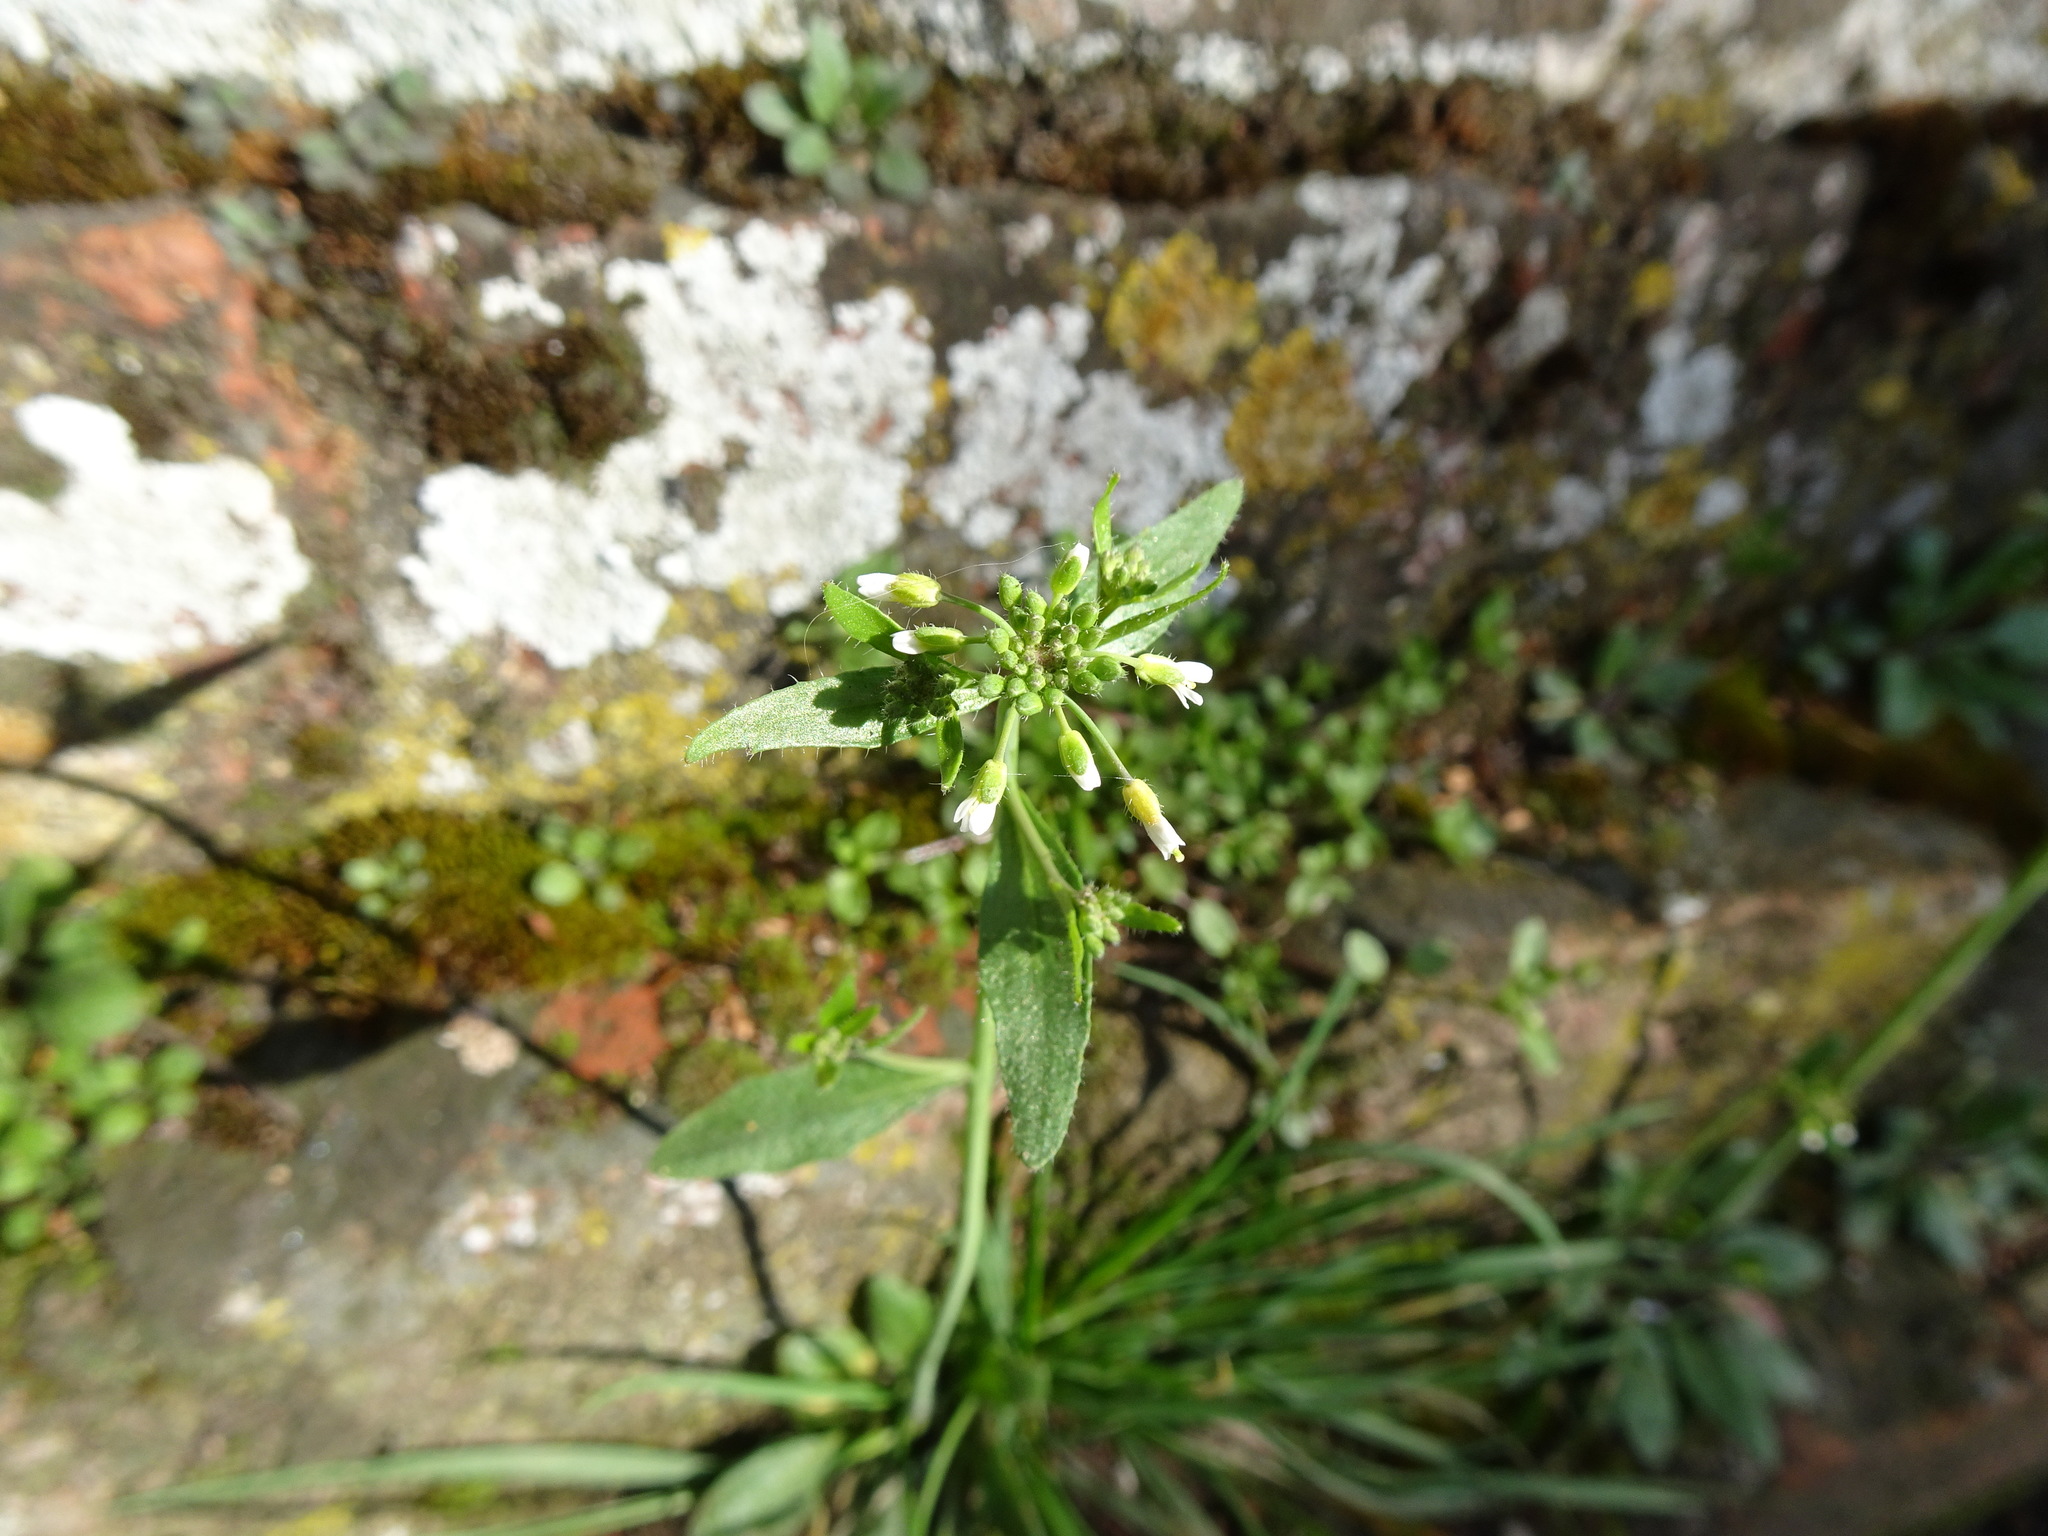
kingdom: Plantae
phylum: Tracheophyta
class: Magnoliopsida
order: Brassicales
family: Brassicaceae
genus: Arabidopsis
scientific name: Arabidopsis thaliana
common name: Thale cress
